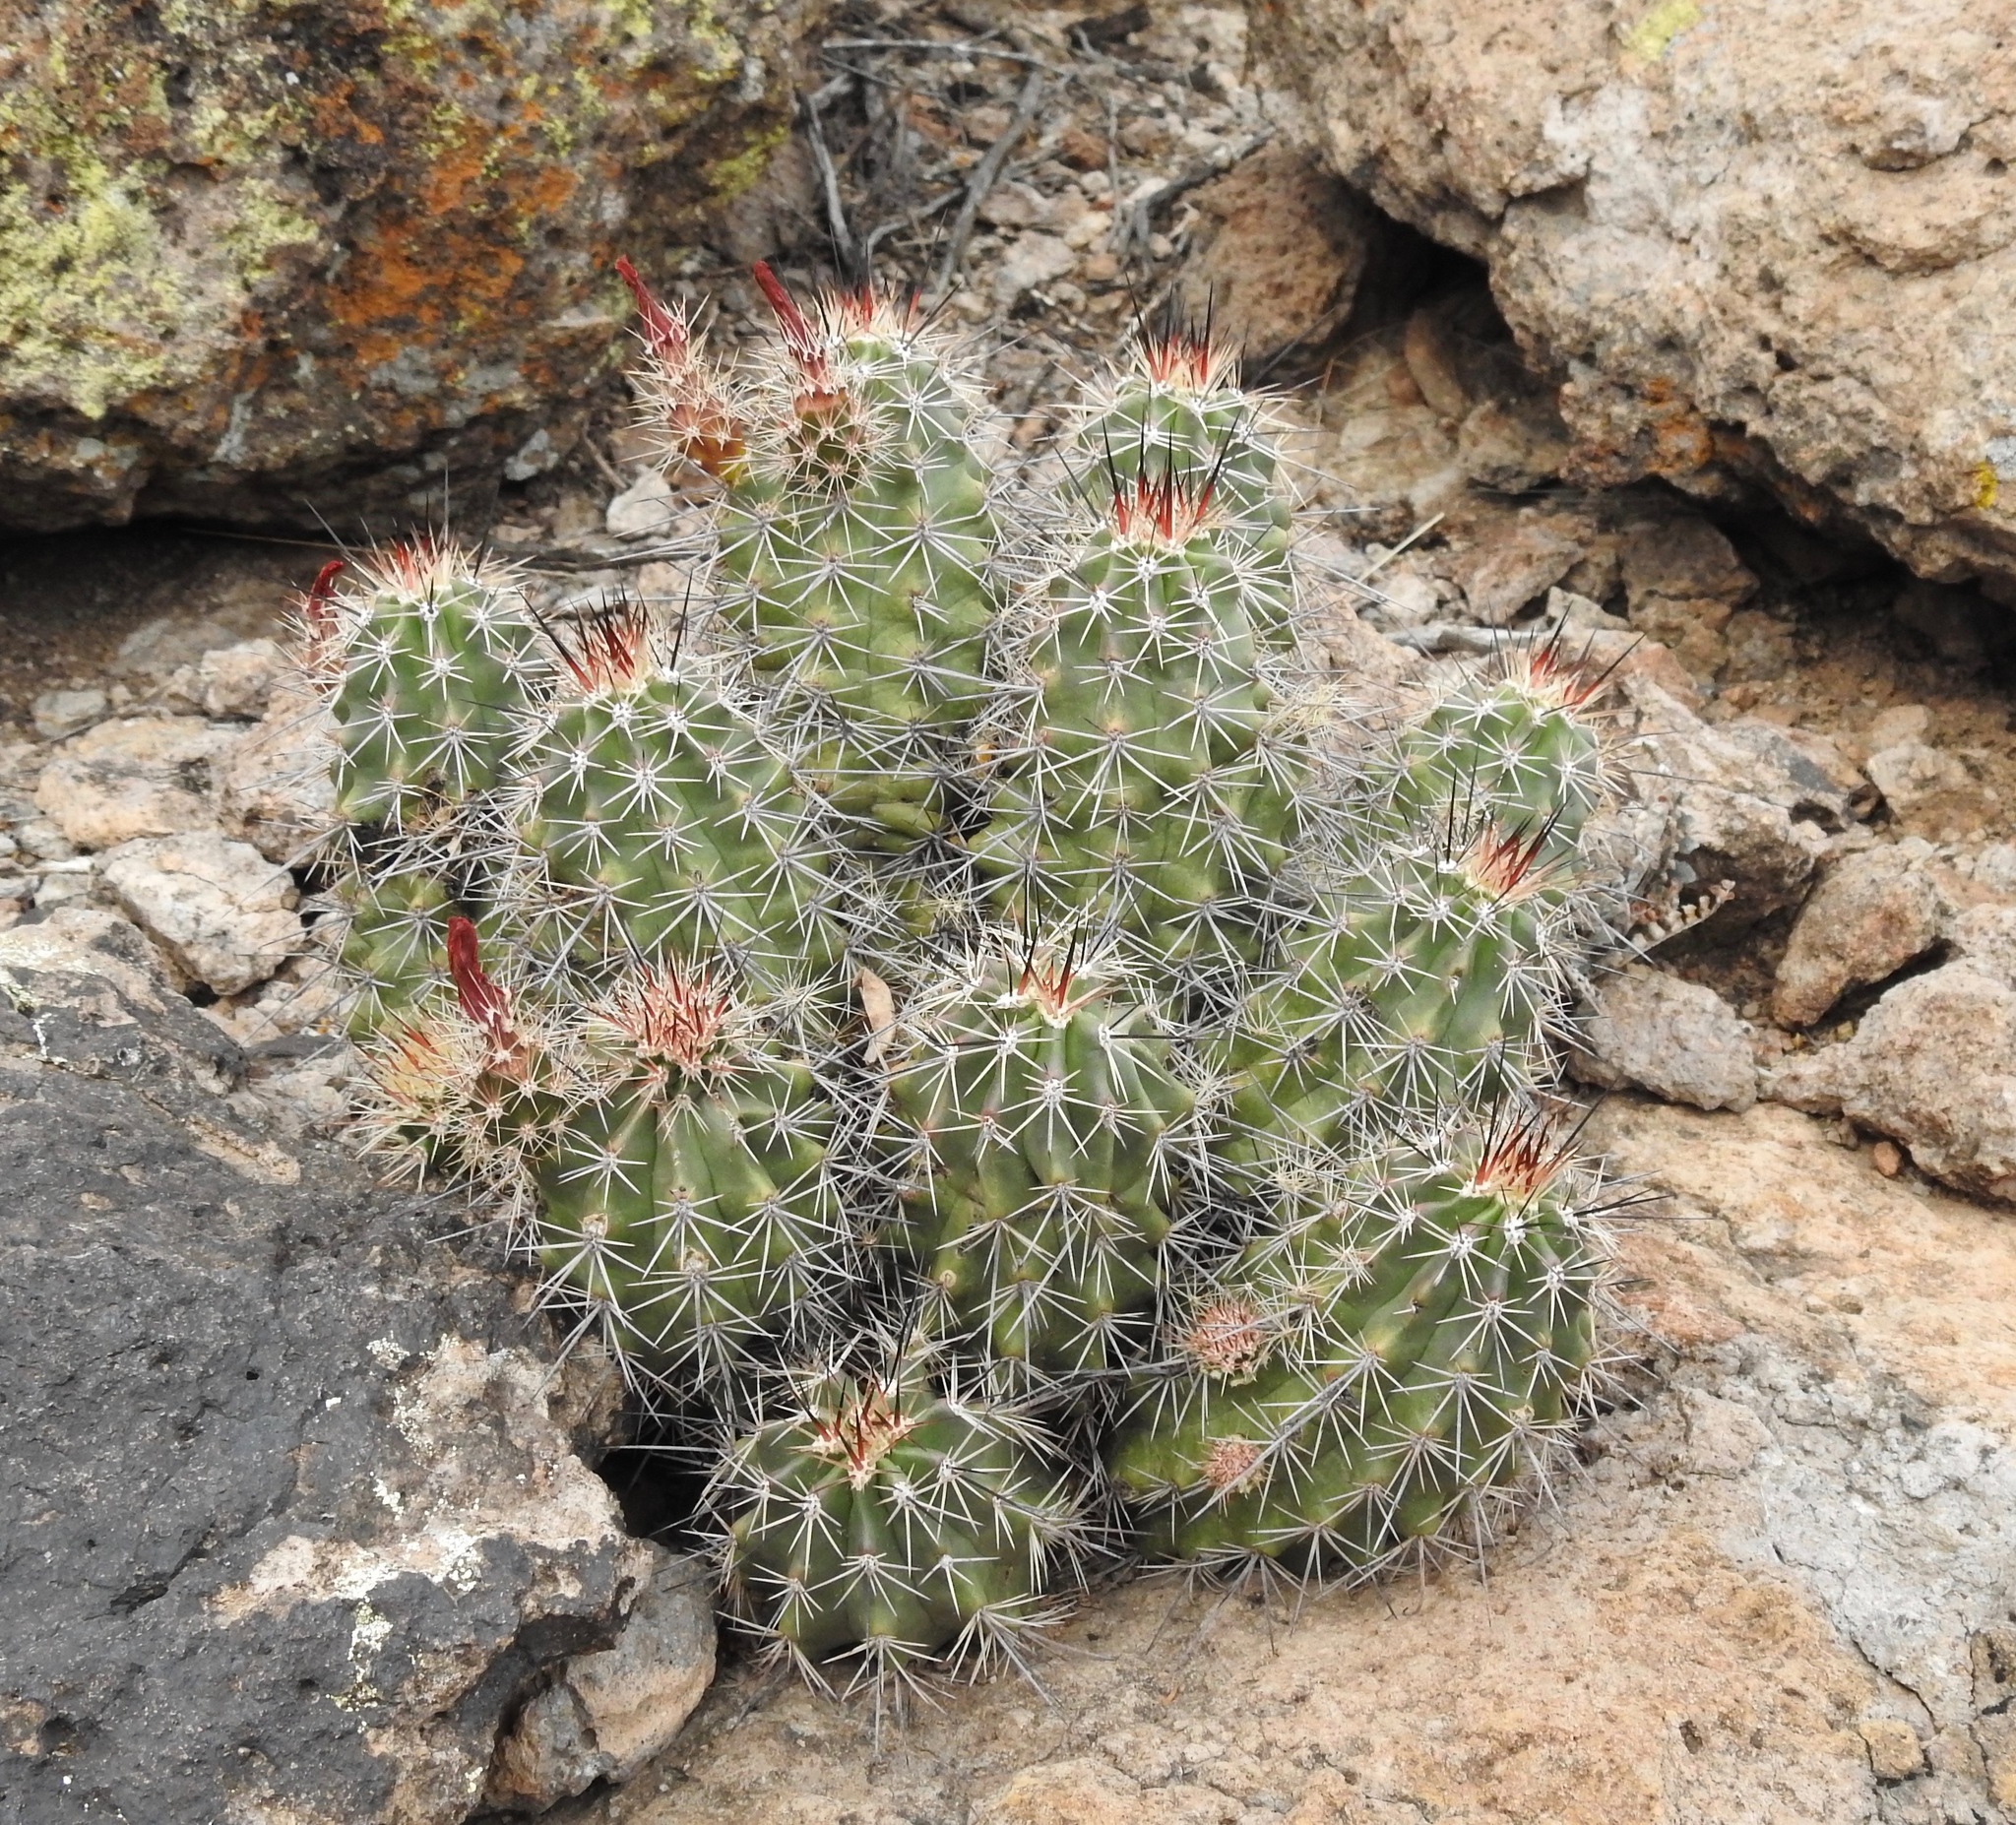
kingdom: Plantae
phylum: Tracheophyta
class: Magnoliopsida
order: Caryophyllales
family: Cactaceae
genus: Echinocereus
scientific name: Echinocereus coccineus
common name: Scarlet hedgehog cactus
